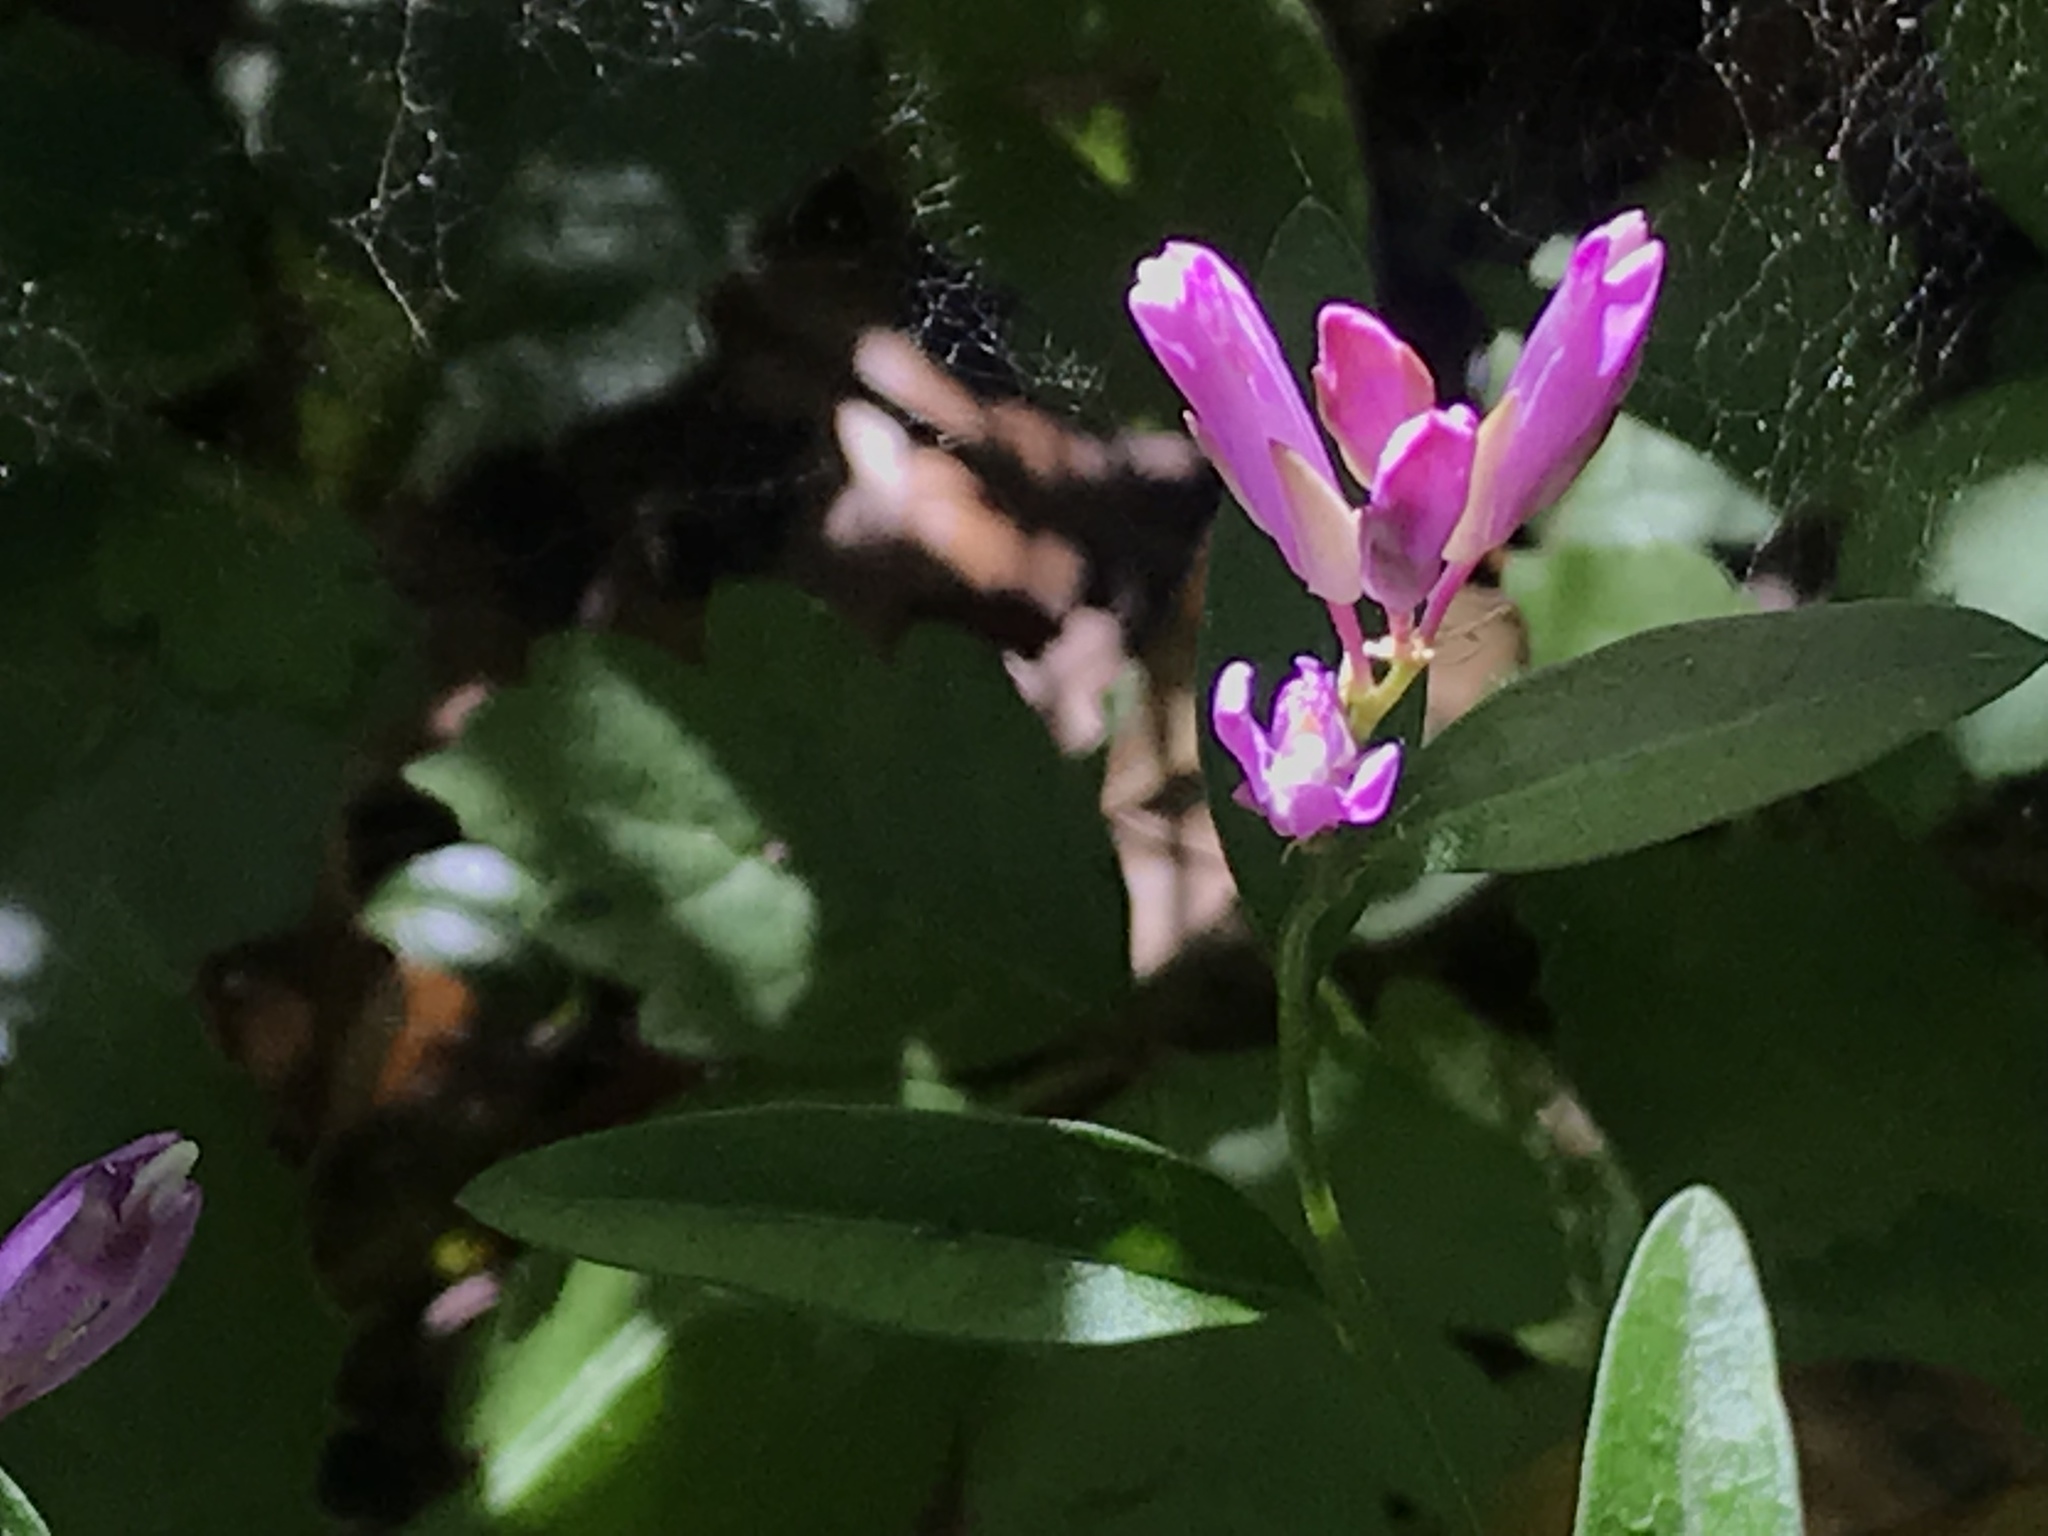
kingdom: Plantae
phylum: Tracheophyta
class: Magnoliopsida
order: Fabales
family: Polygalaceae
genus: Rhinotropis
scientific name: Rhinotropis californica
